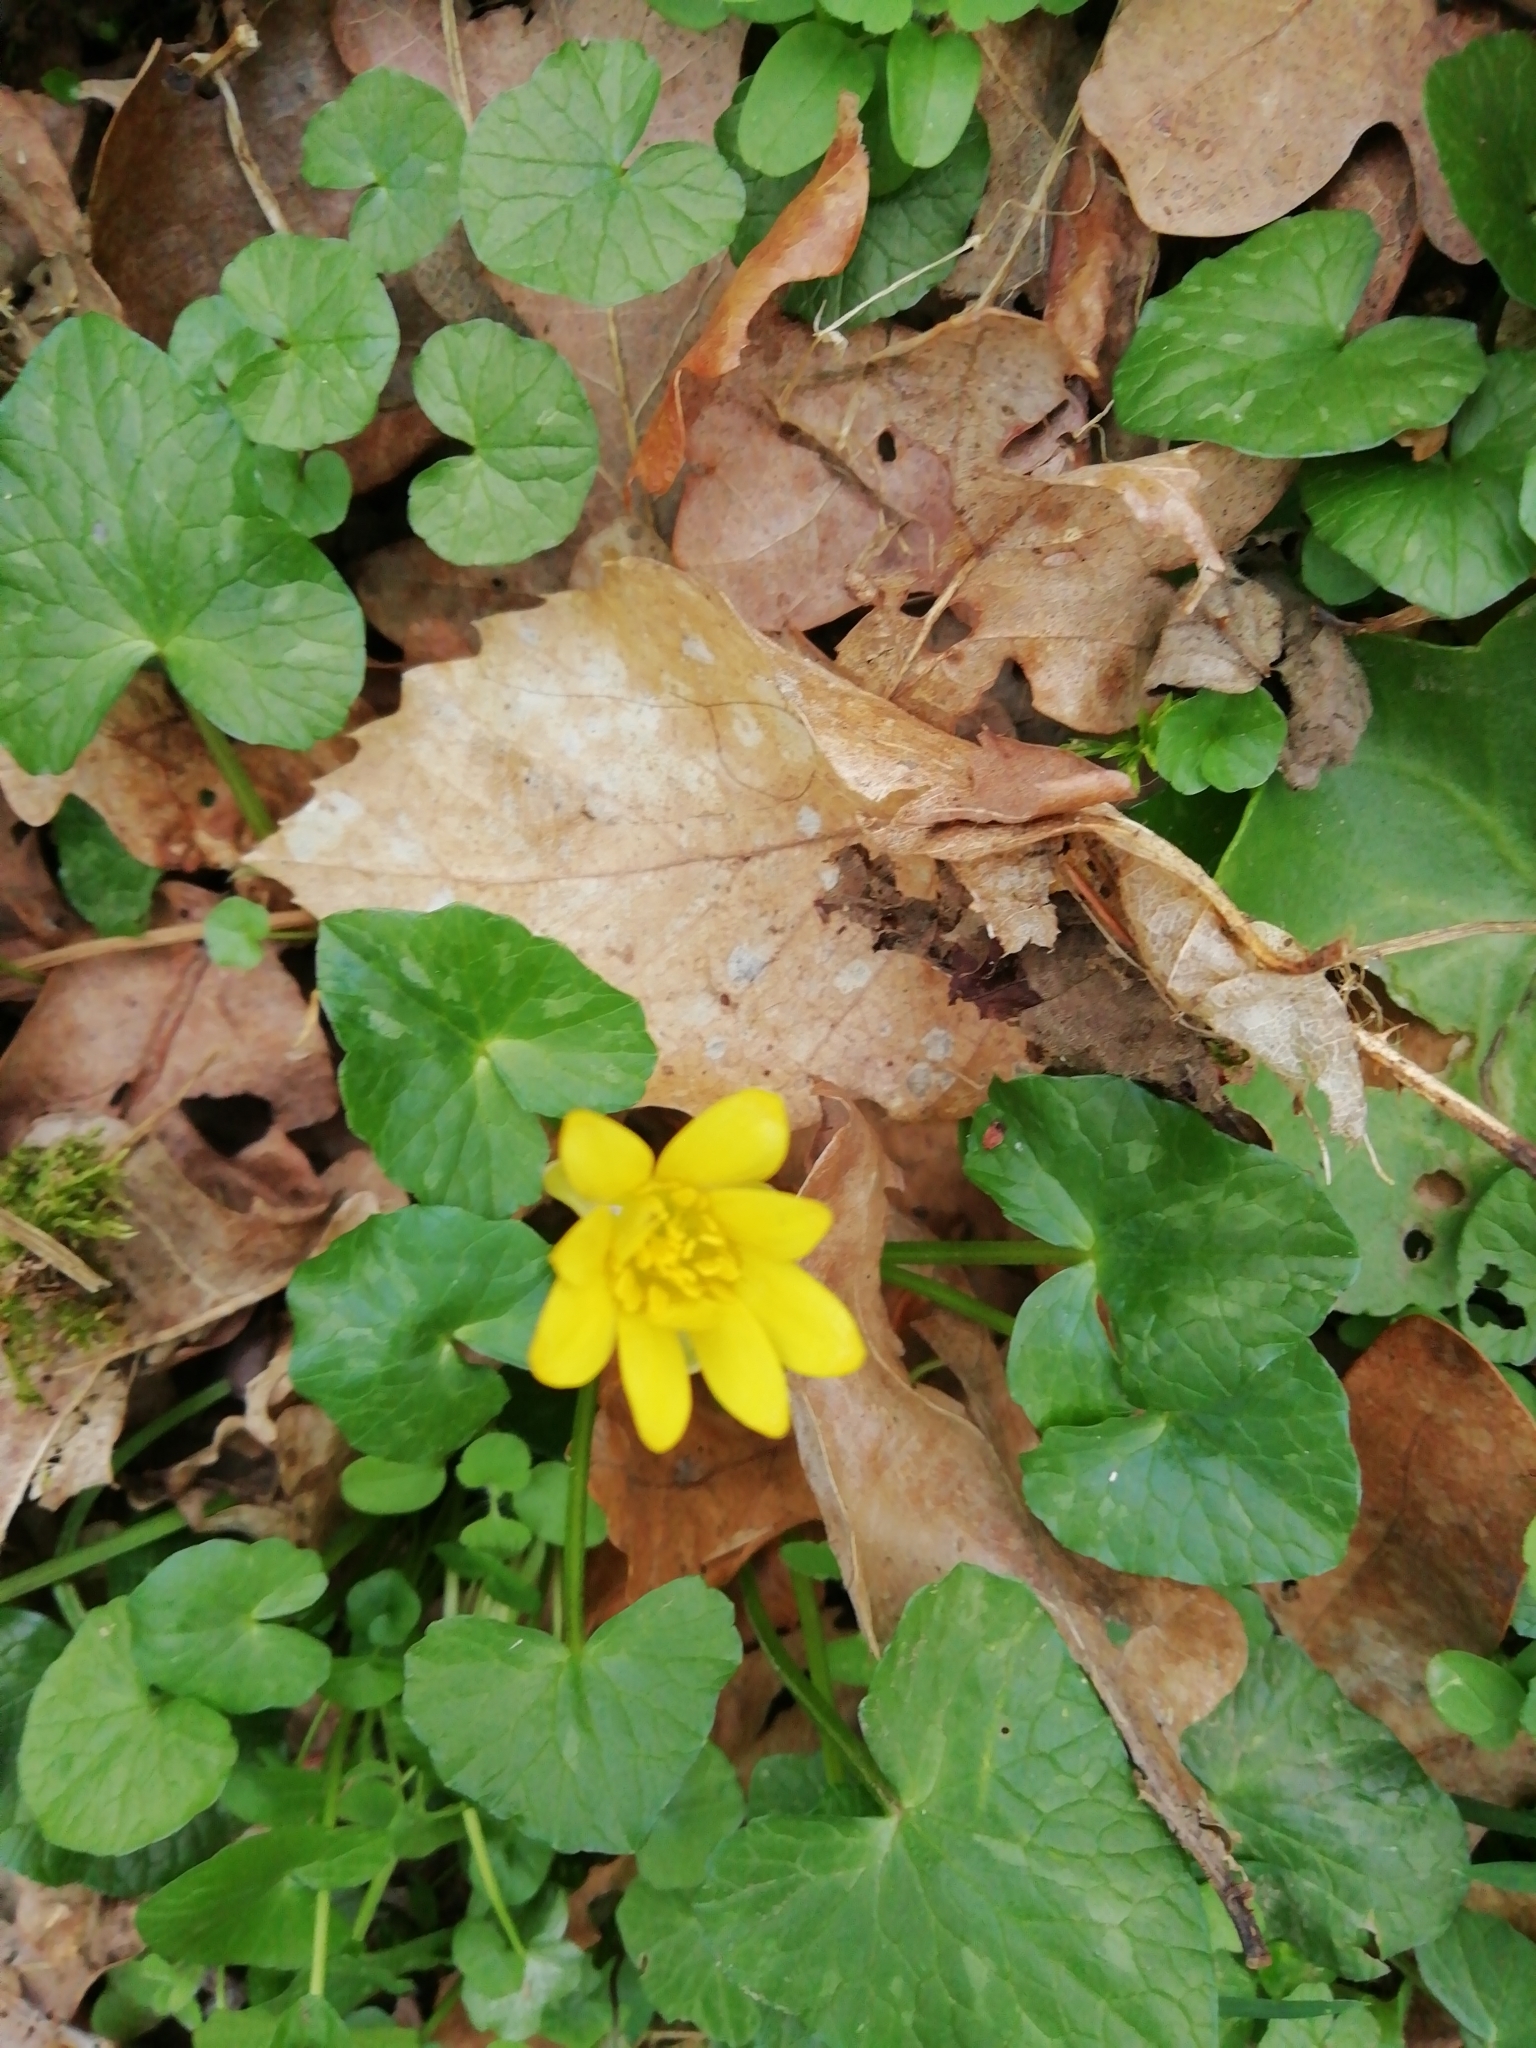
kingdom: Plantae
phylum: Tracheophyta
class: Magnoliopsida
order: Ranunculales
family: Ranunculaceae
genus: Ficaria
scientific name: Ficaria verna
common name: Lesser celandine
